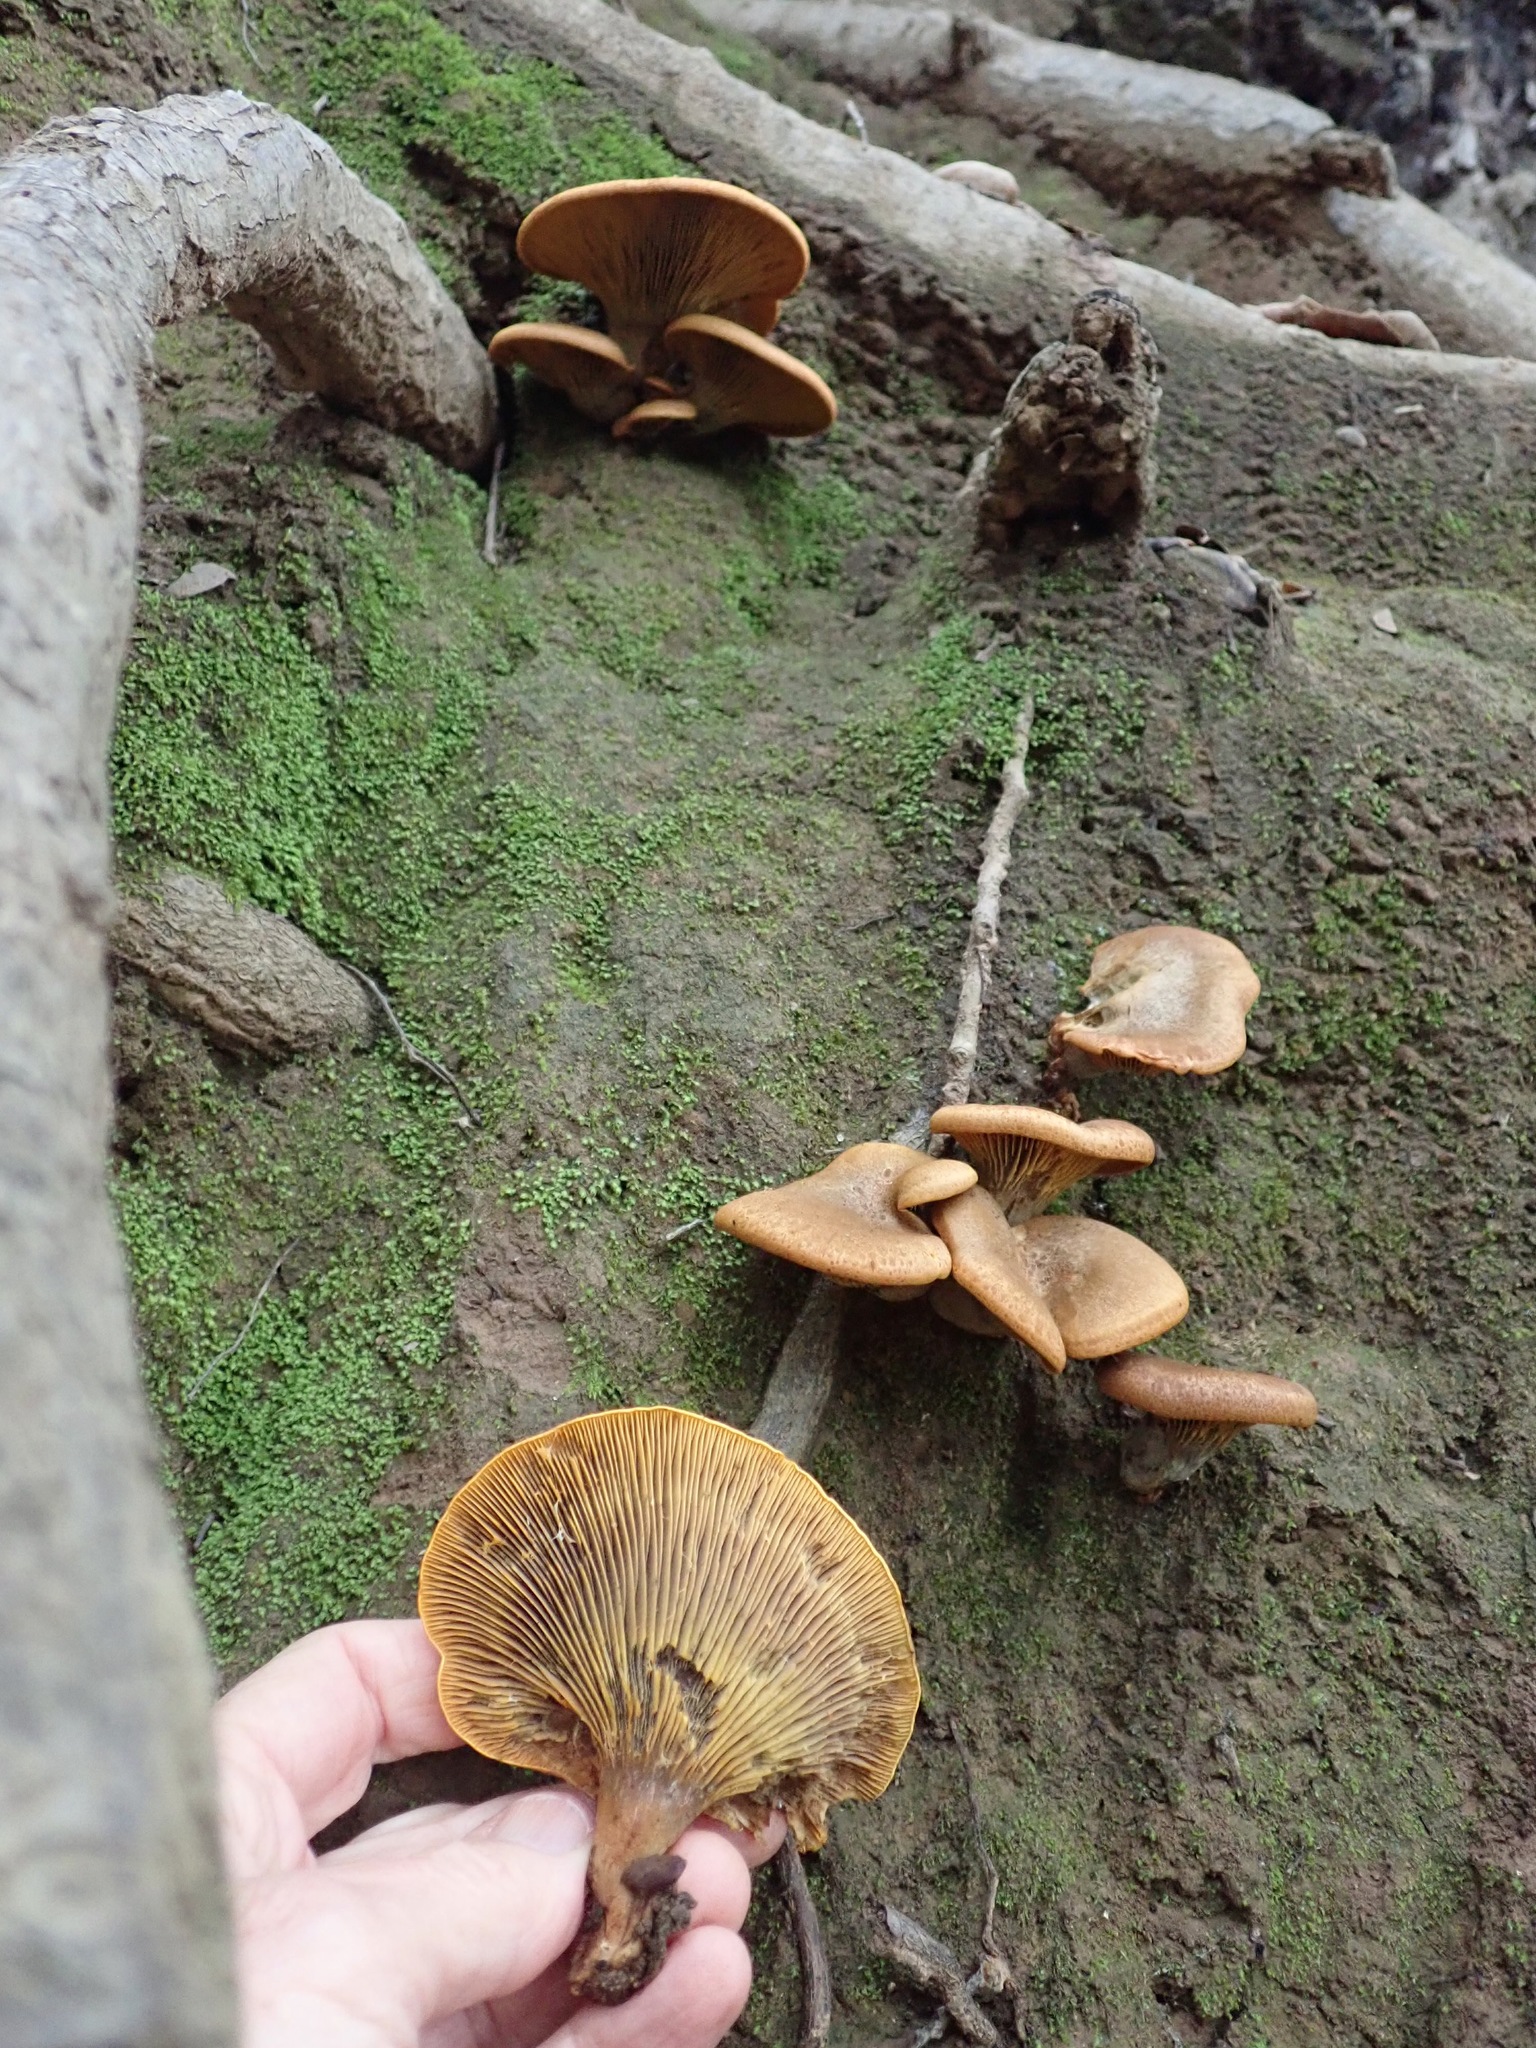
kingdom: Fungi
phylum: Basidiomycota
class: Agaricomycetes
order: Agaricales
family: Omphalotaceae
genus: Omphalotus
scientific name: Omphalotus olivascens
